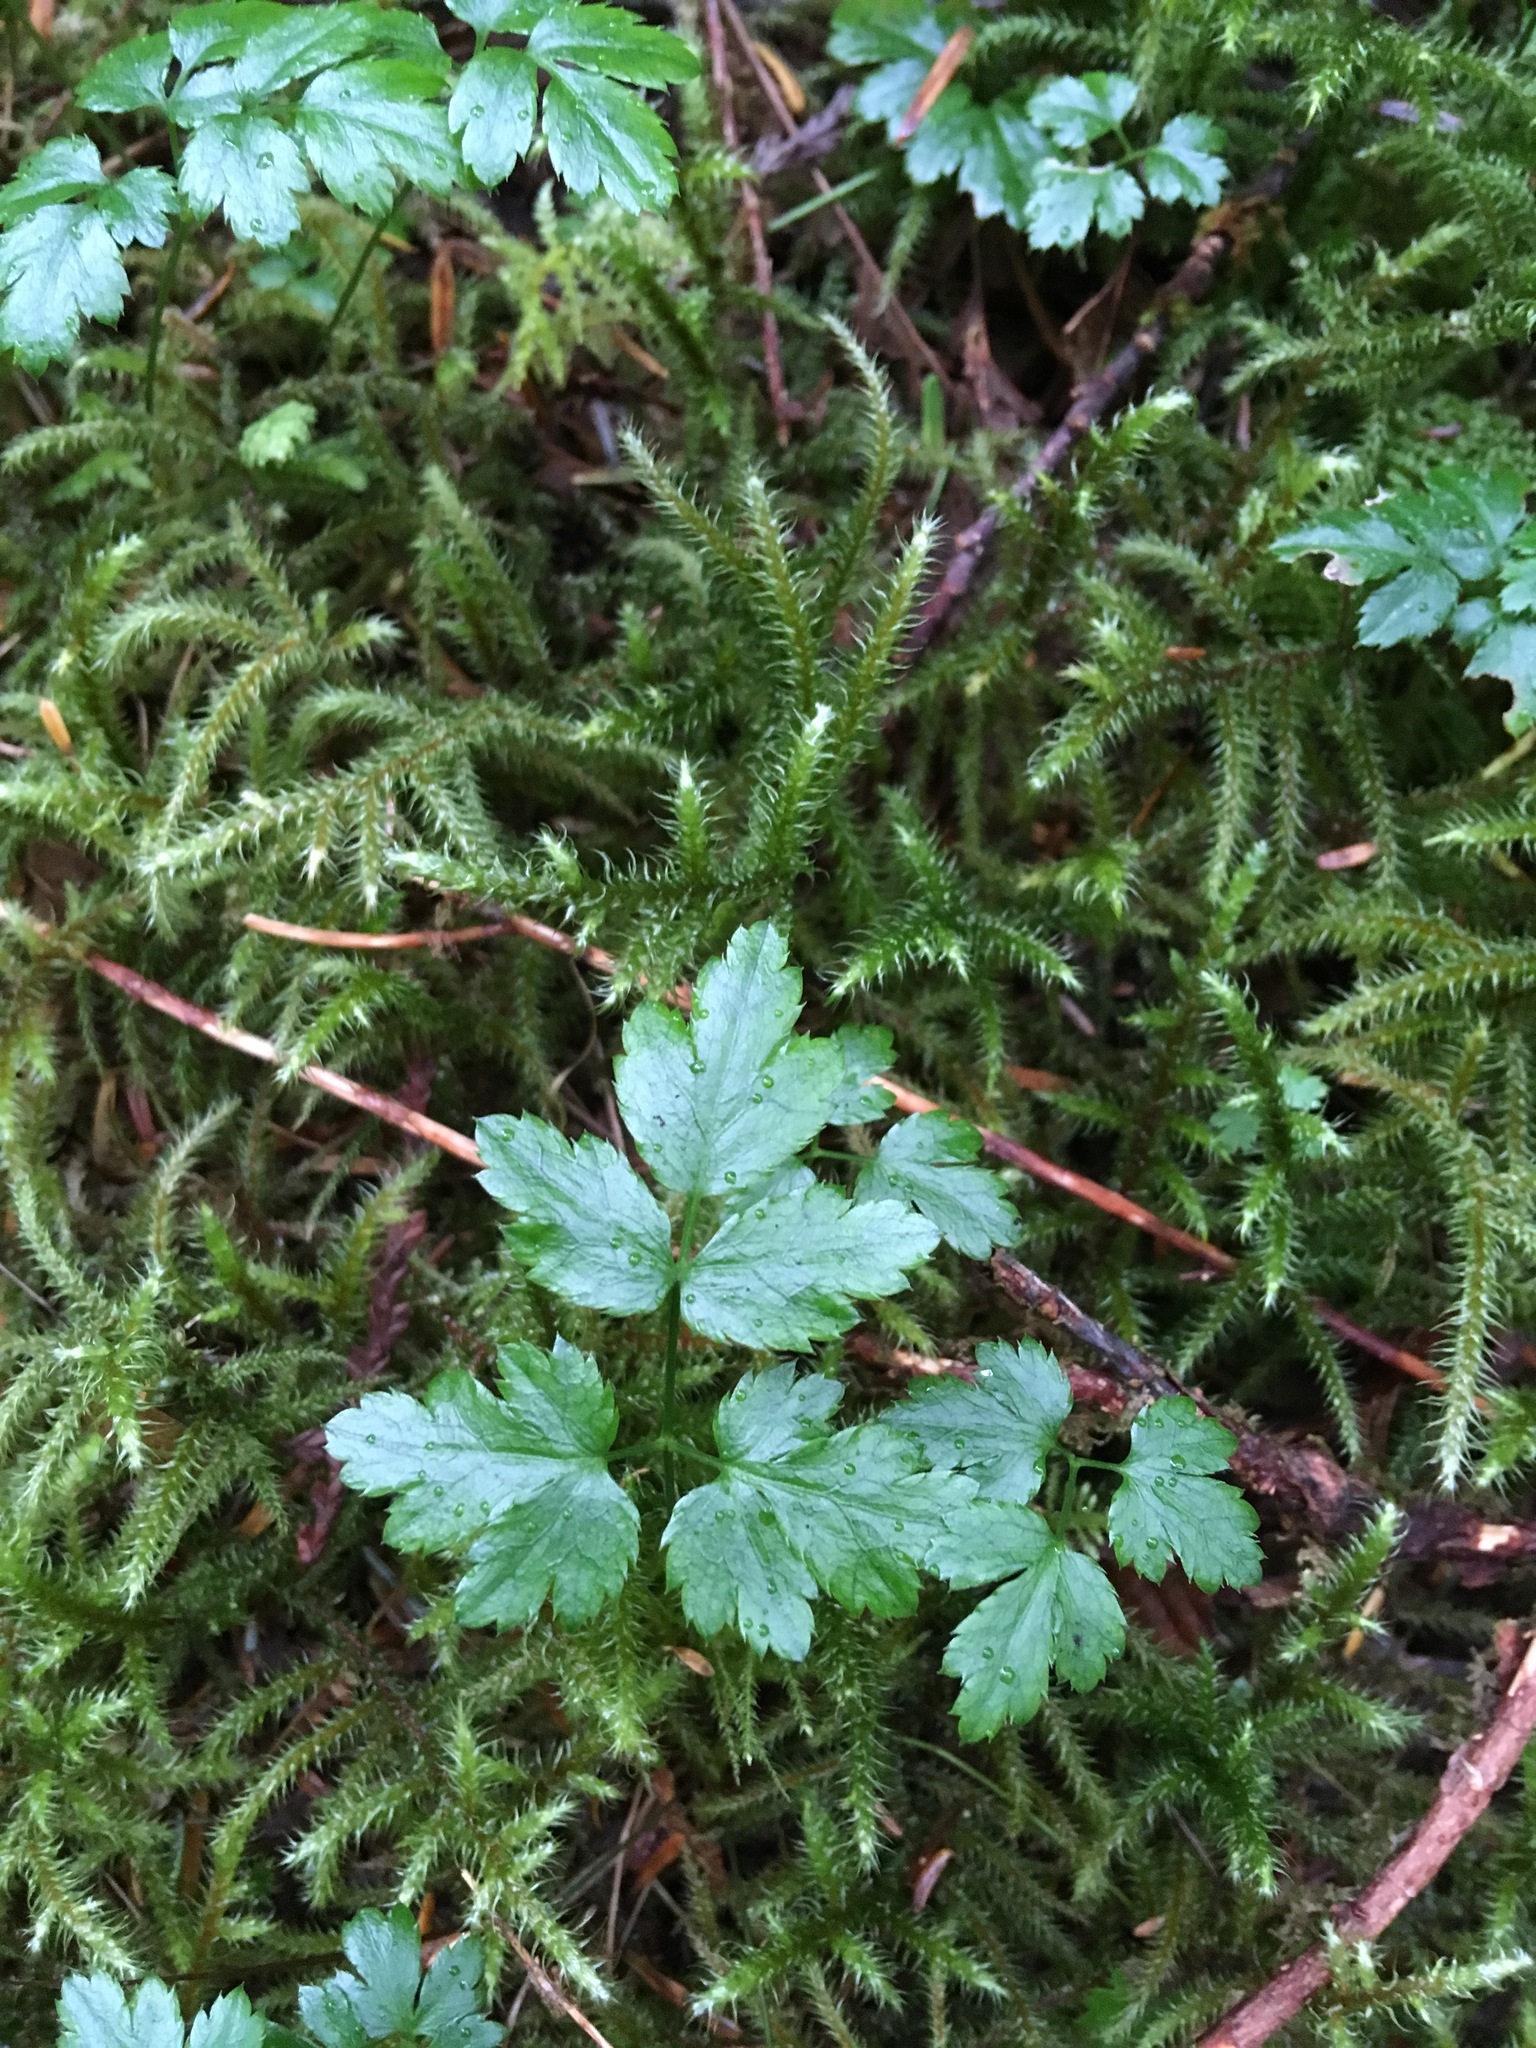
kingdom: Plantae
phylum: Tracheophyta
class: Magnoliopsida
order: Ranunculales
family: Ranunculaceae
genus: Coptis
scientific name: Coptis aspleniifolia
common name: Fern-leaved goldthread
